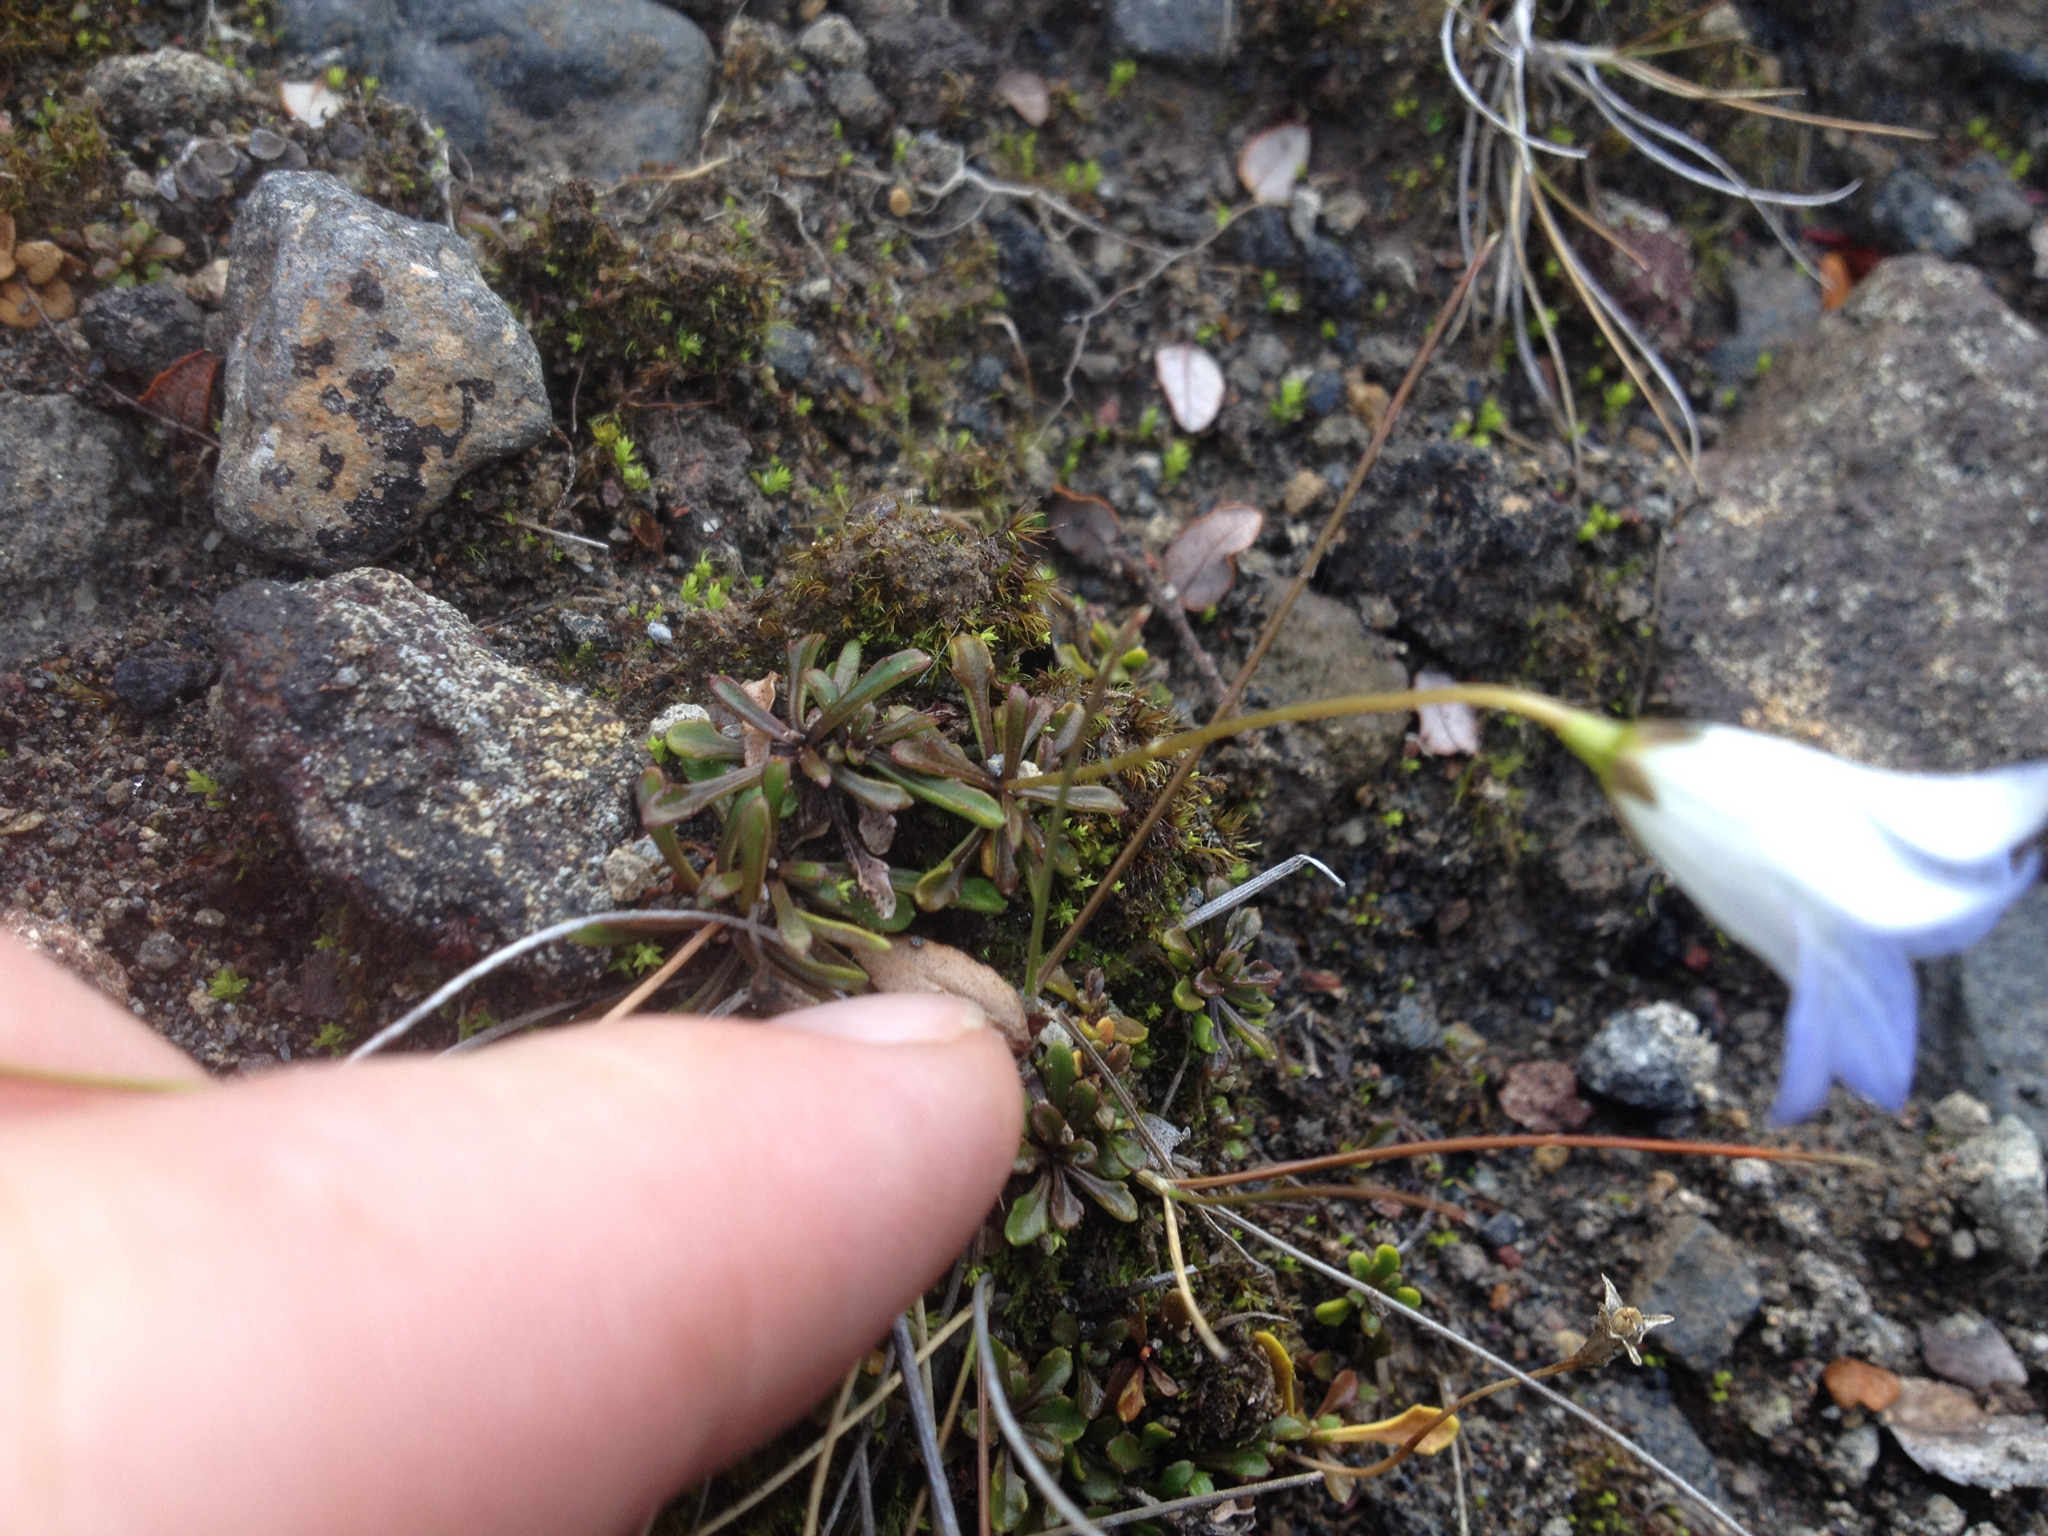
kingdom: Plantae
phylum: Tracheophyta
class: Magnoliopsida
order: Asterales
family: Campanulaceae
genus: Wahlenbergia
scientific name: Wahlenbergia pygmaea
